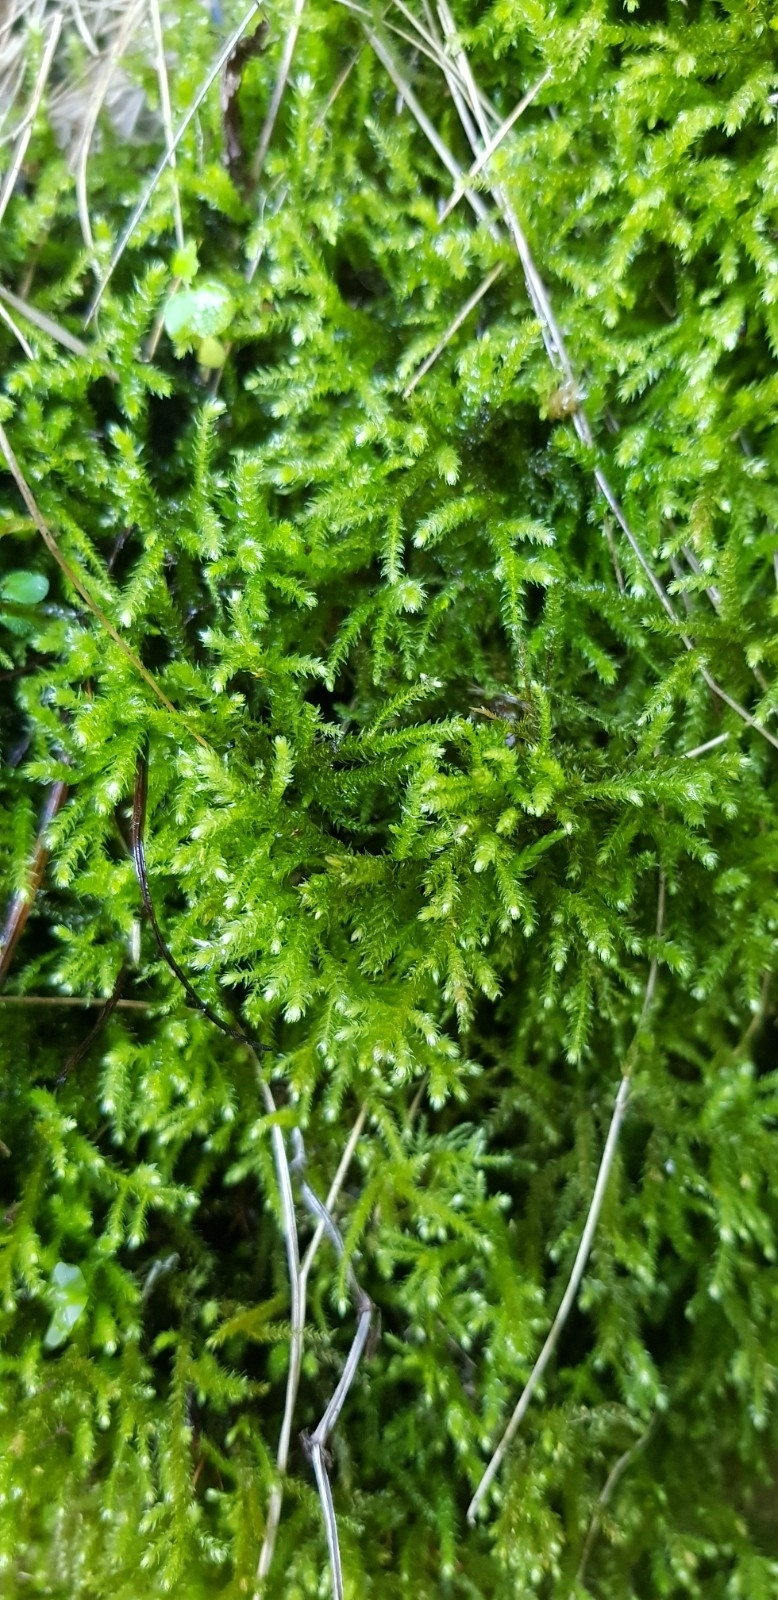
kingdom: Plantae
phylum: Bryophyta
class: Bryopsida
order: Hypnales
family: Brachytheciaceae
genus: Eurhynchium
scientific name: Eurhynchium striatum
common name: Common striated feather-moss
